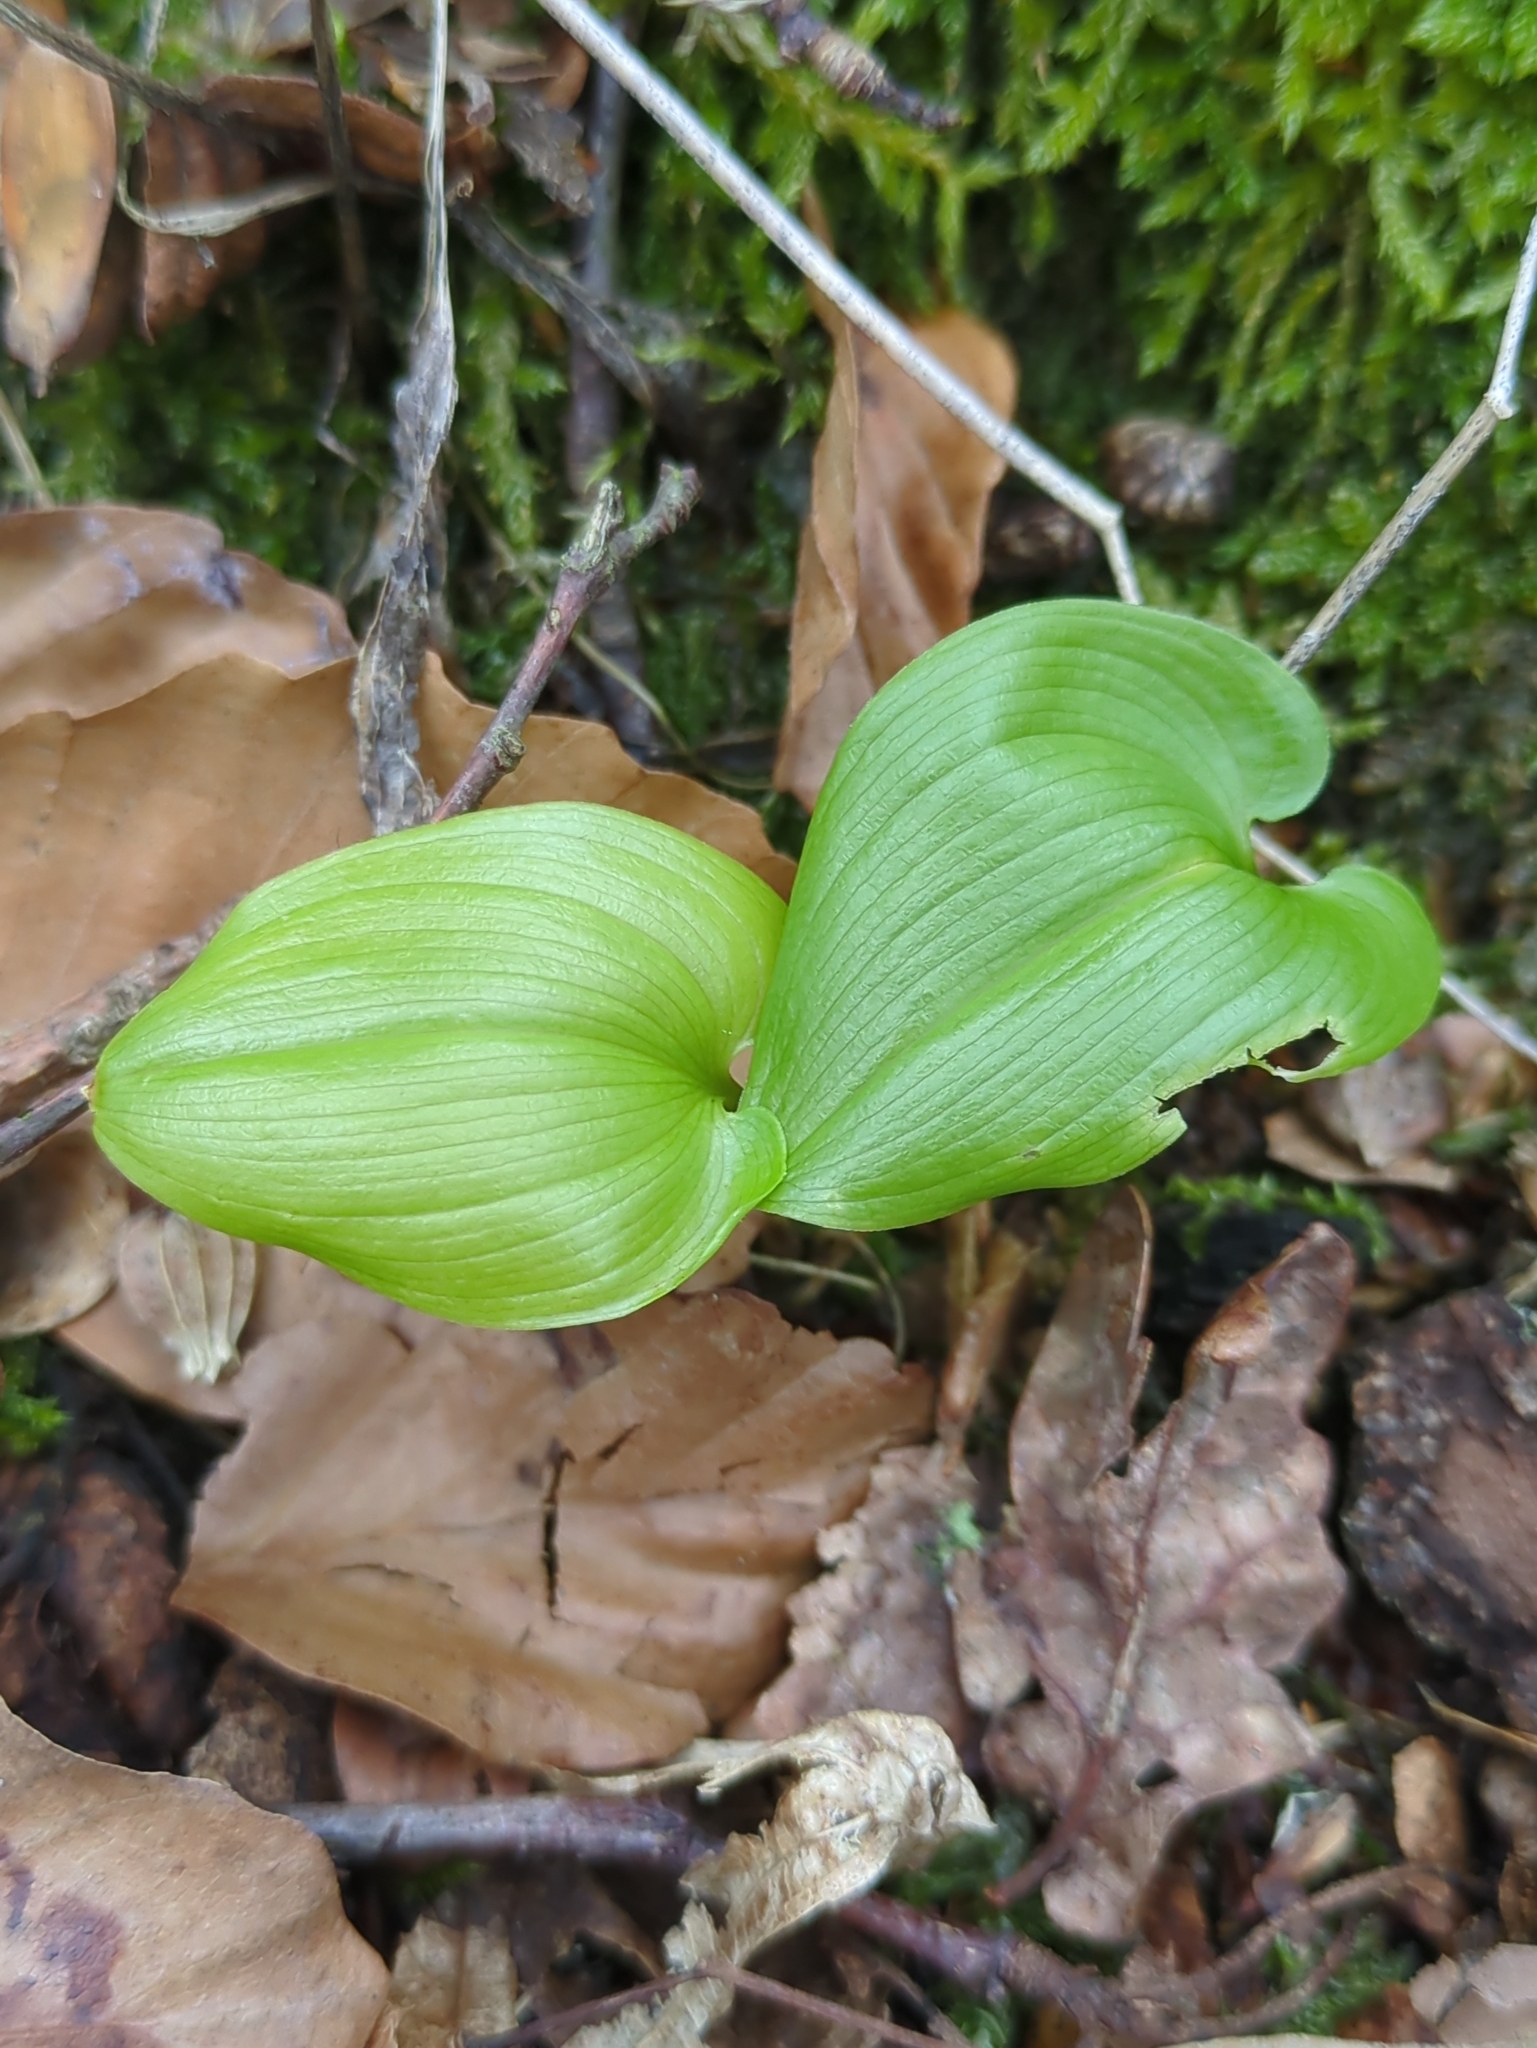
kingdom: Plantae
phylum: Tracheophyta
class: Liliopsida
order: Asparagales
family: Asparagaceae
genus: Maianthemum
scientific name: Maianthemum bifolium
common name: May lily
